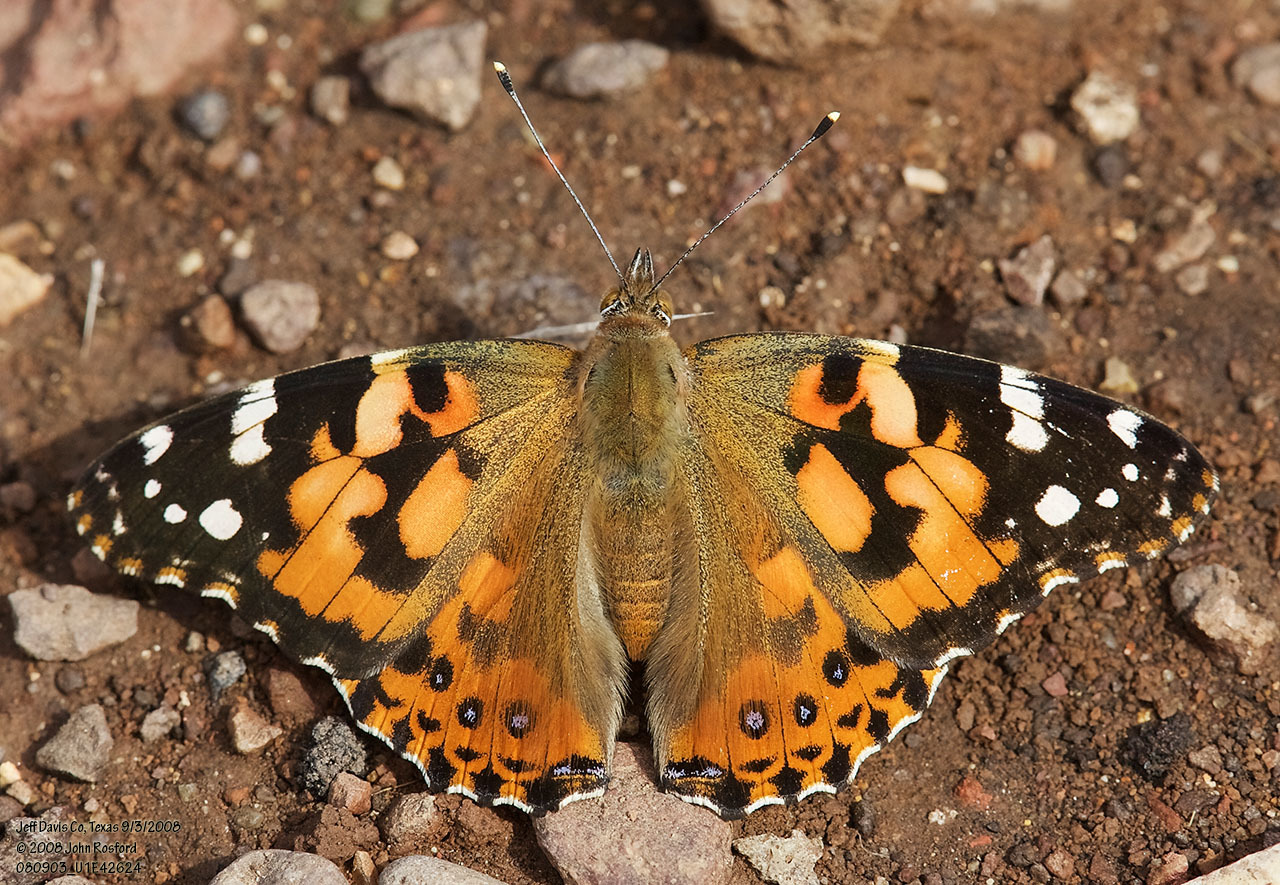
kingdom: Animalia
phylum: Arthropoda
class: Insecta
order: Lepidoptera
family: Nymphalidae
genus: Vanessa
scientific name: Vanessa cardui
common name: Painted lady
